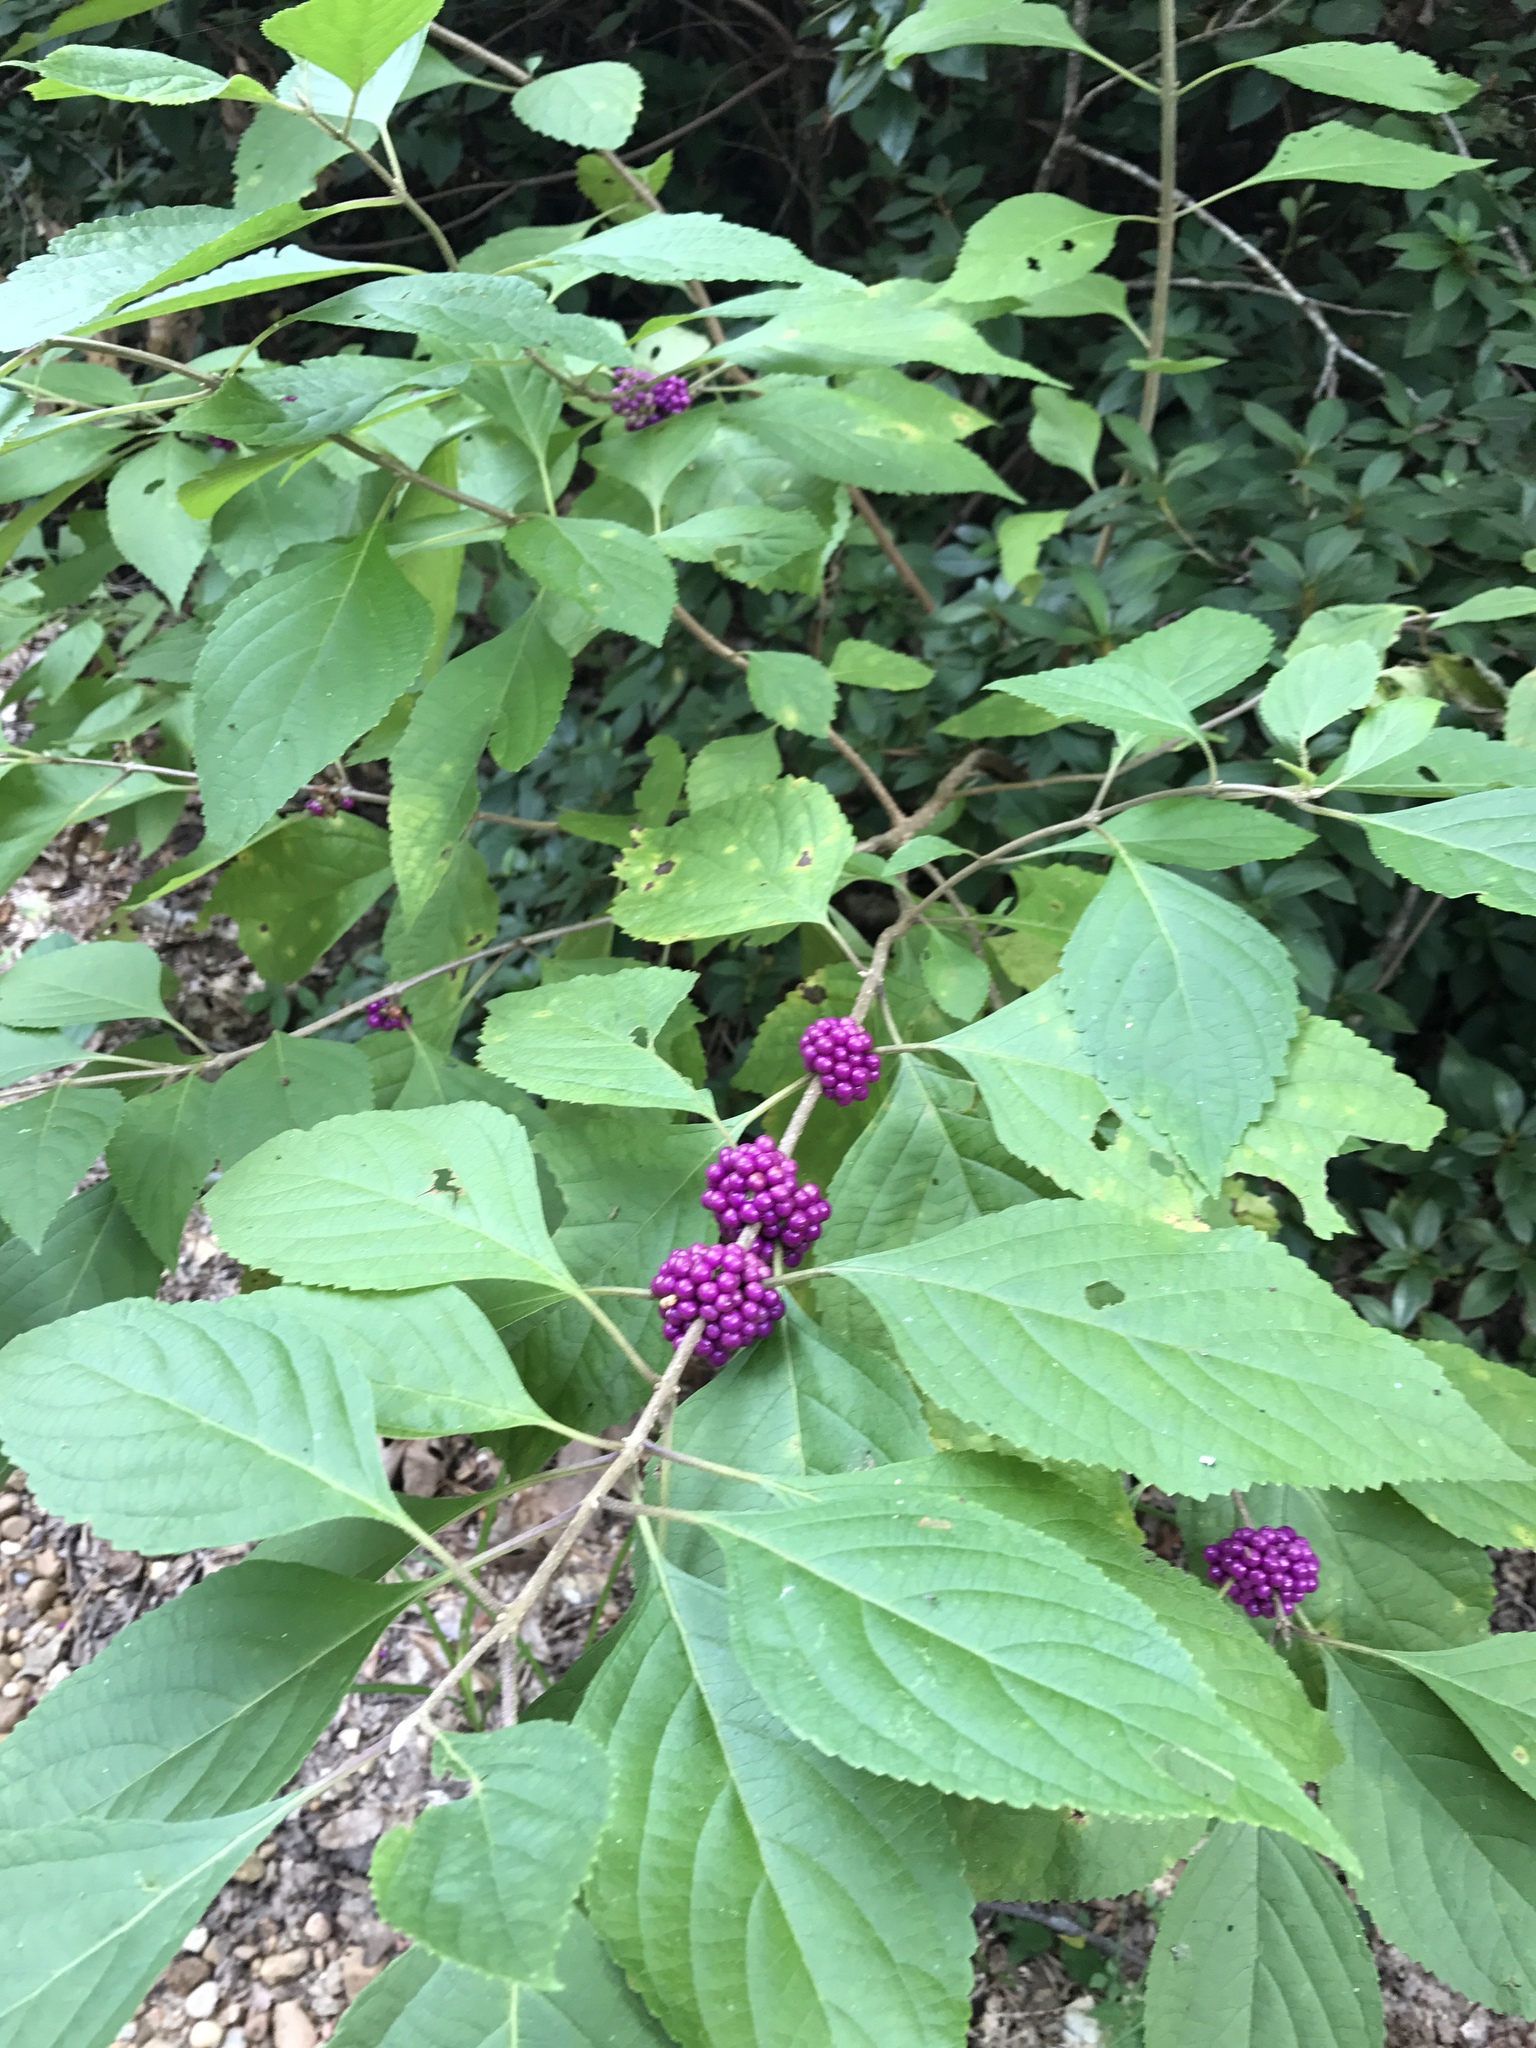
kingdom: Plantae
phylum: Tracheophyta
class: Magnoliopsida
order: Lamiales
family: Lamiaceae
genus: Callicarpa
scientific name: Callicarpa americana
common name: American beautyberry
